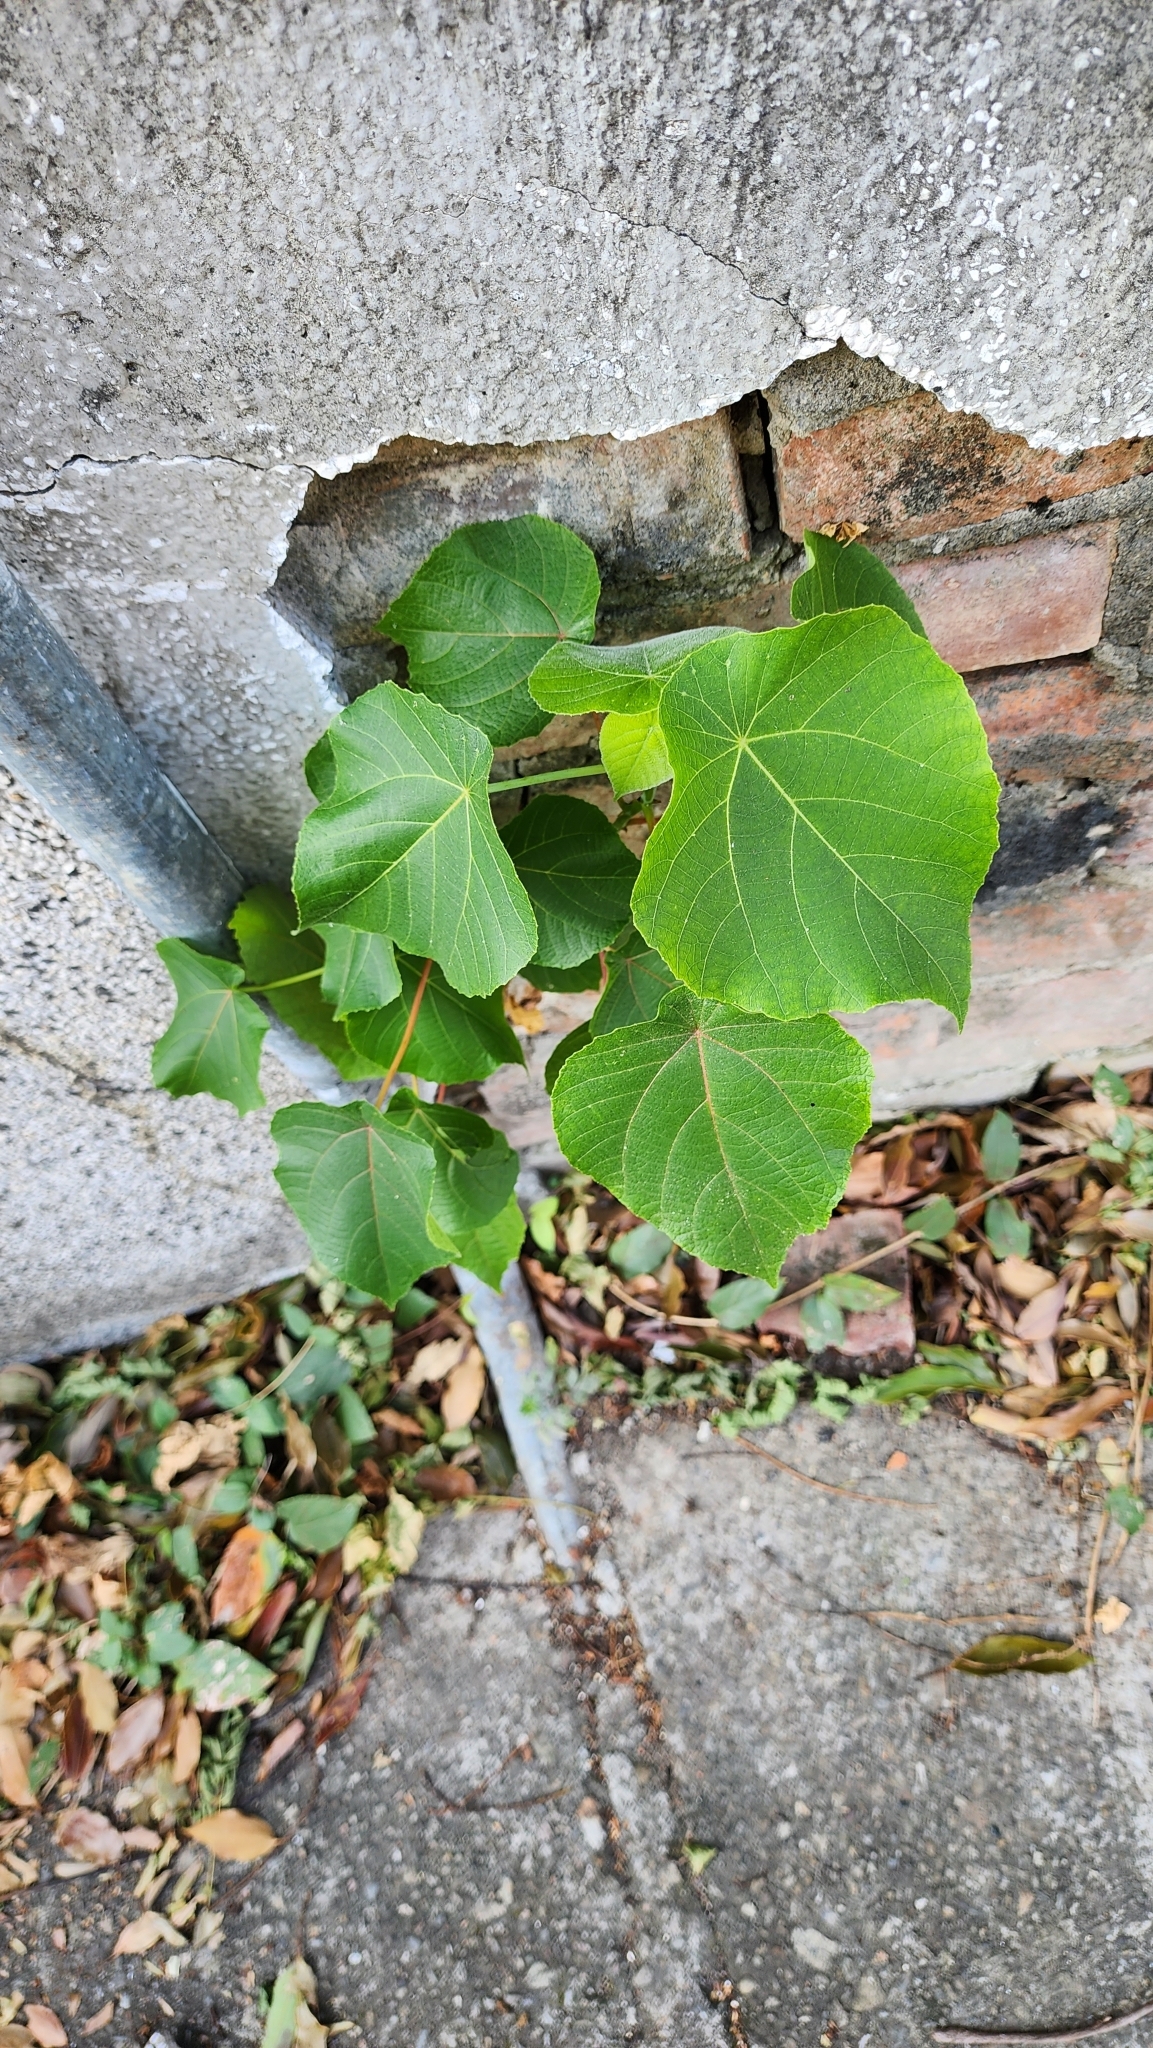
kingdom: Plantae
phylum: Tracheophyta
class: Magnoliopsida
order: Malpighiales
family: Euphorbiaceae
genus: Macaranga
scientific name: Macaranga tanarius
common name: Parasol leaf tree
